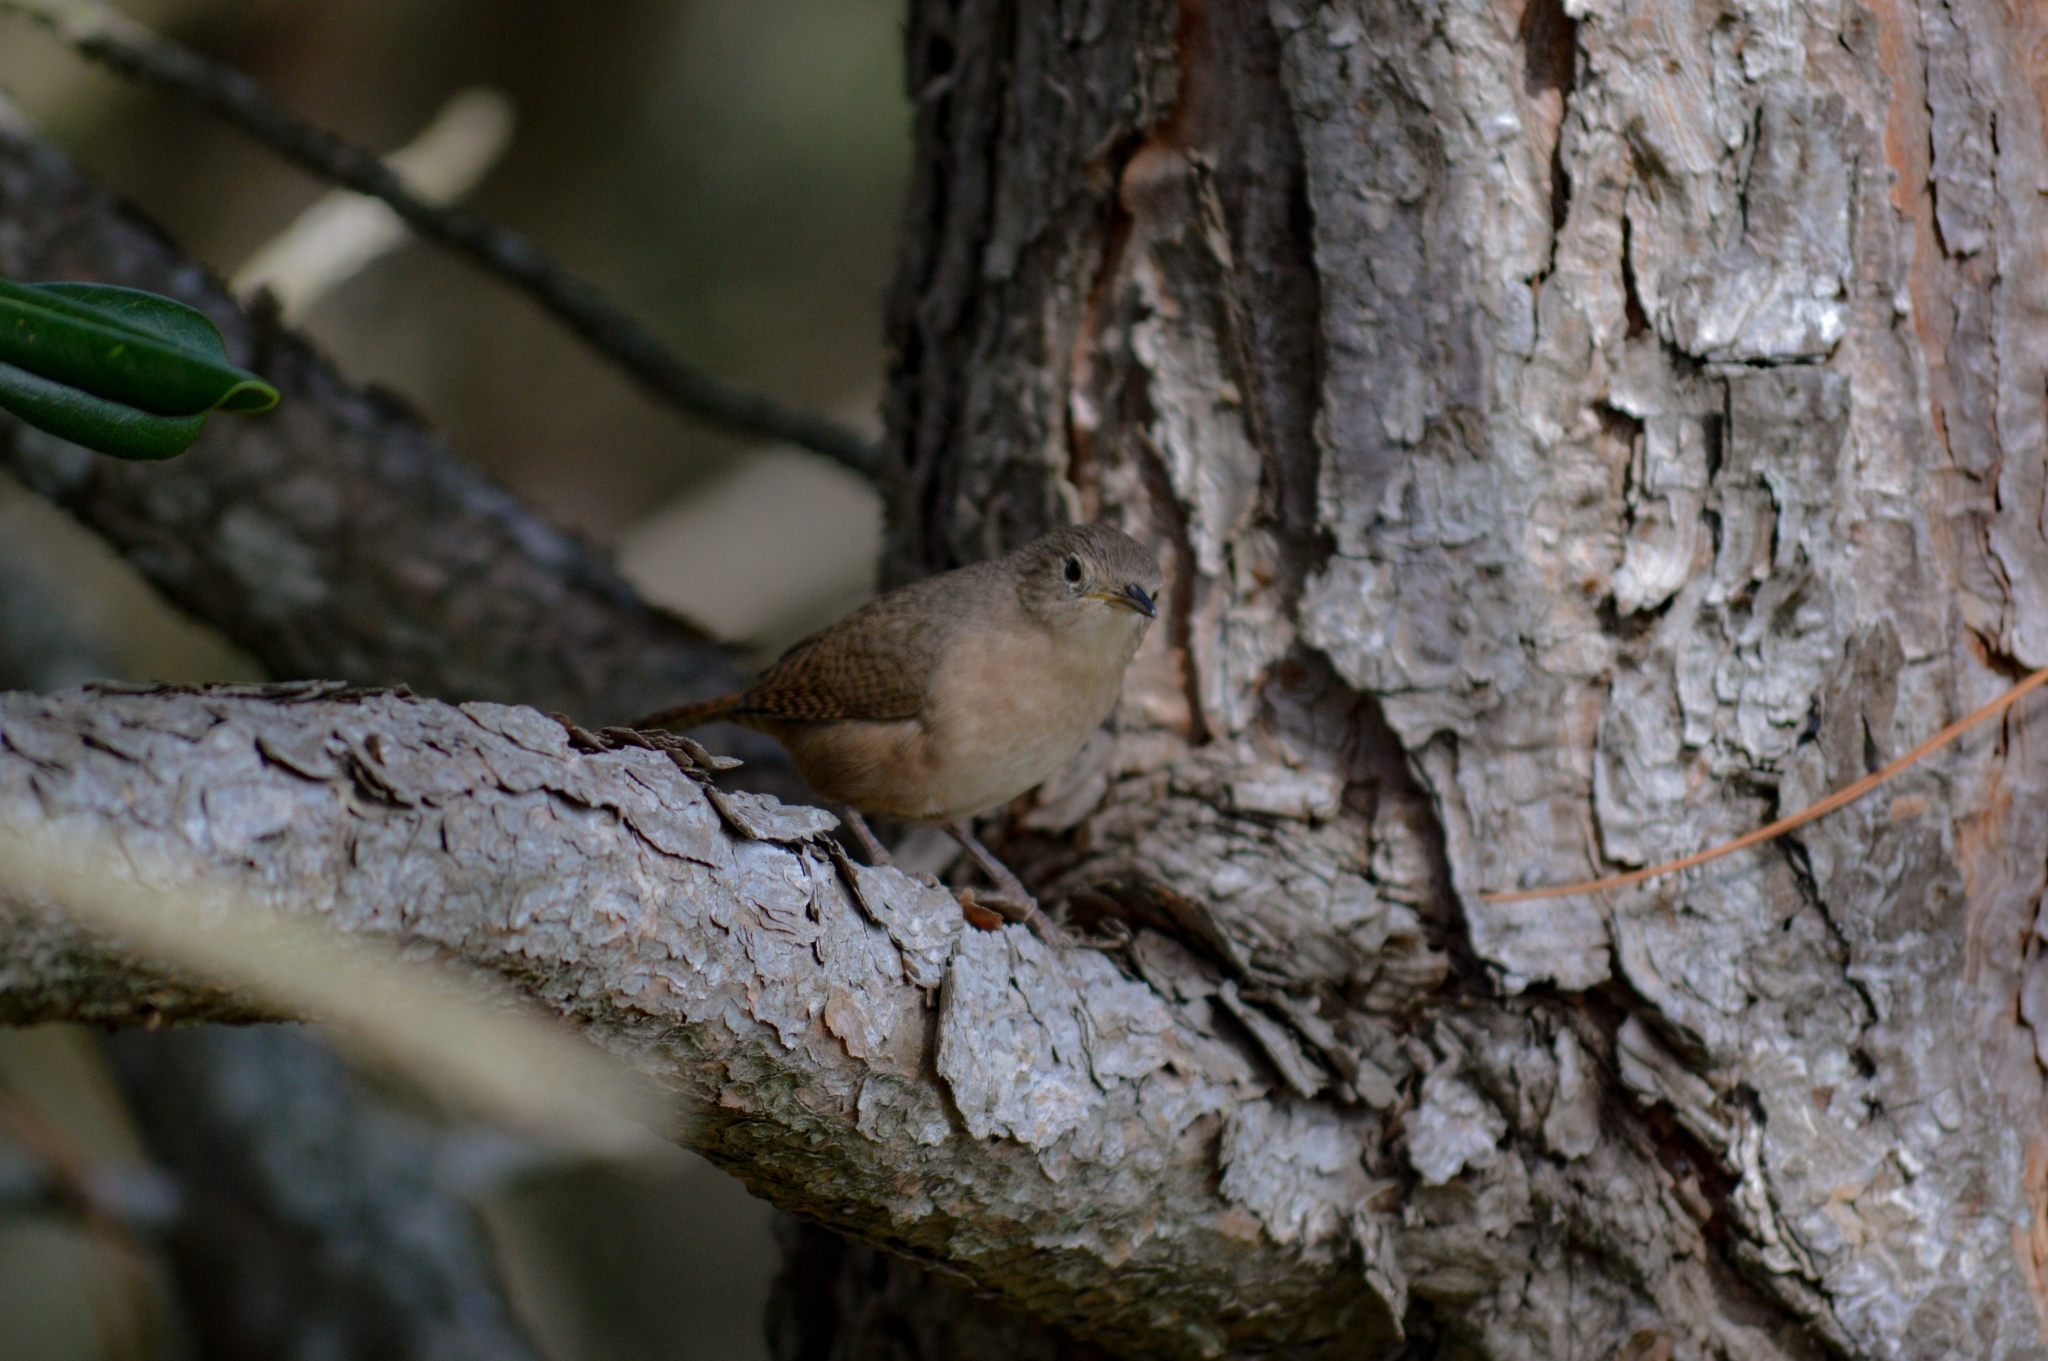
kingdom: Animalia
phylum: Chordata
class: Aves
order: Passeriformes
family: Troglodytidae
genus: Troglodytes
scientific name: Troglodytes aedon
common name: House wren
